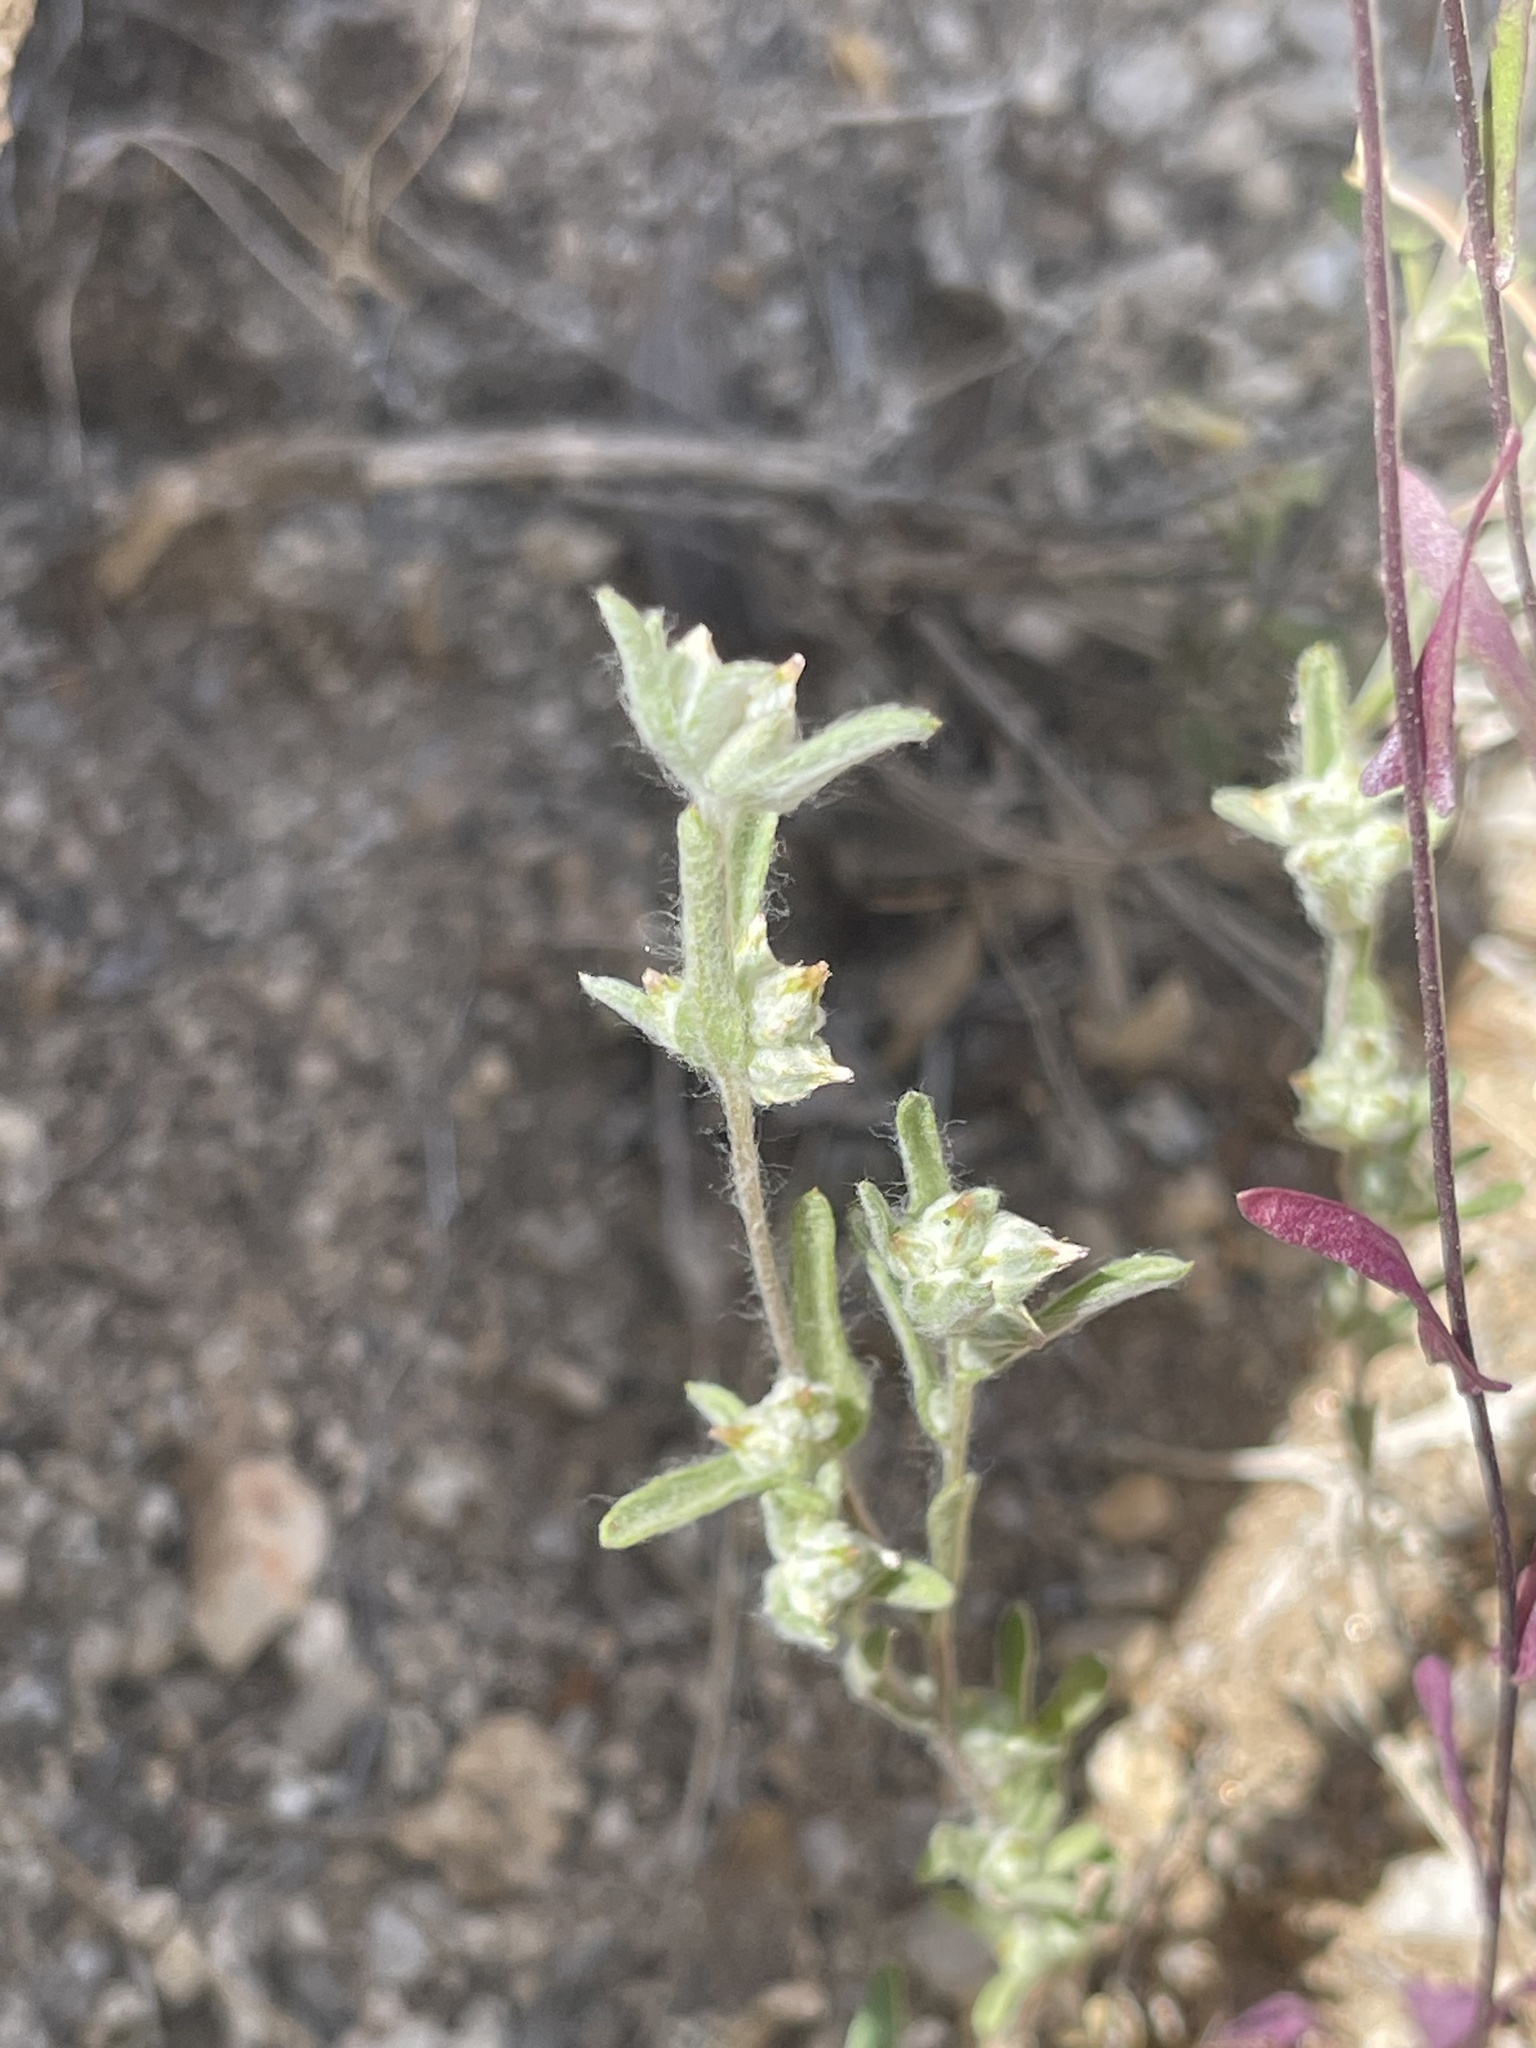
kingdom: Plantae
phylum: Tracheophyta
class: Magnoliopsida
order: Asterales
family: Asteraceae
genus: Logfia
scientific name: Logfia californica
